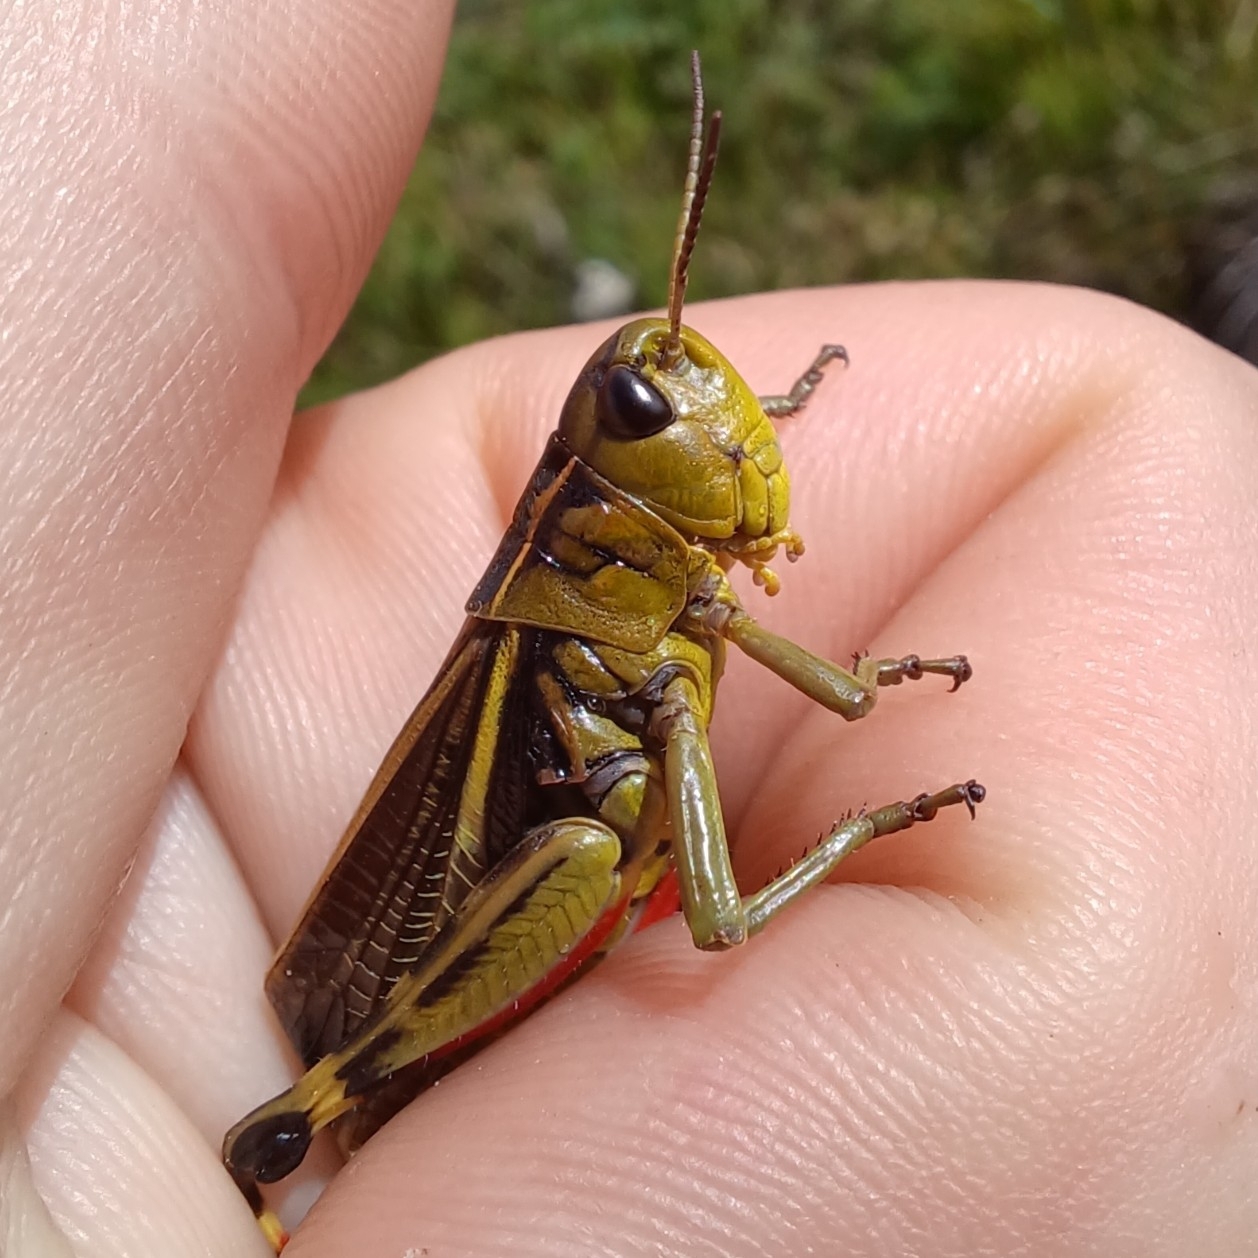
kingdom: Animalia
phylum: Arthropoda
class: Insecta
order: Orthoptera
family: Acrididae
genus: Arcyptera
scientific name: Arcyptera fusca
